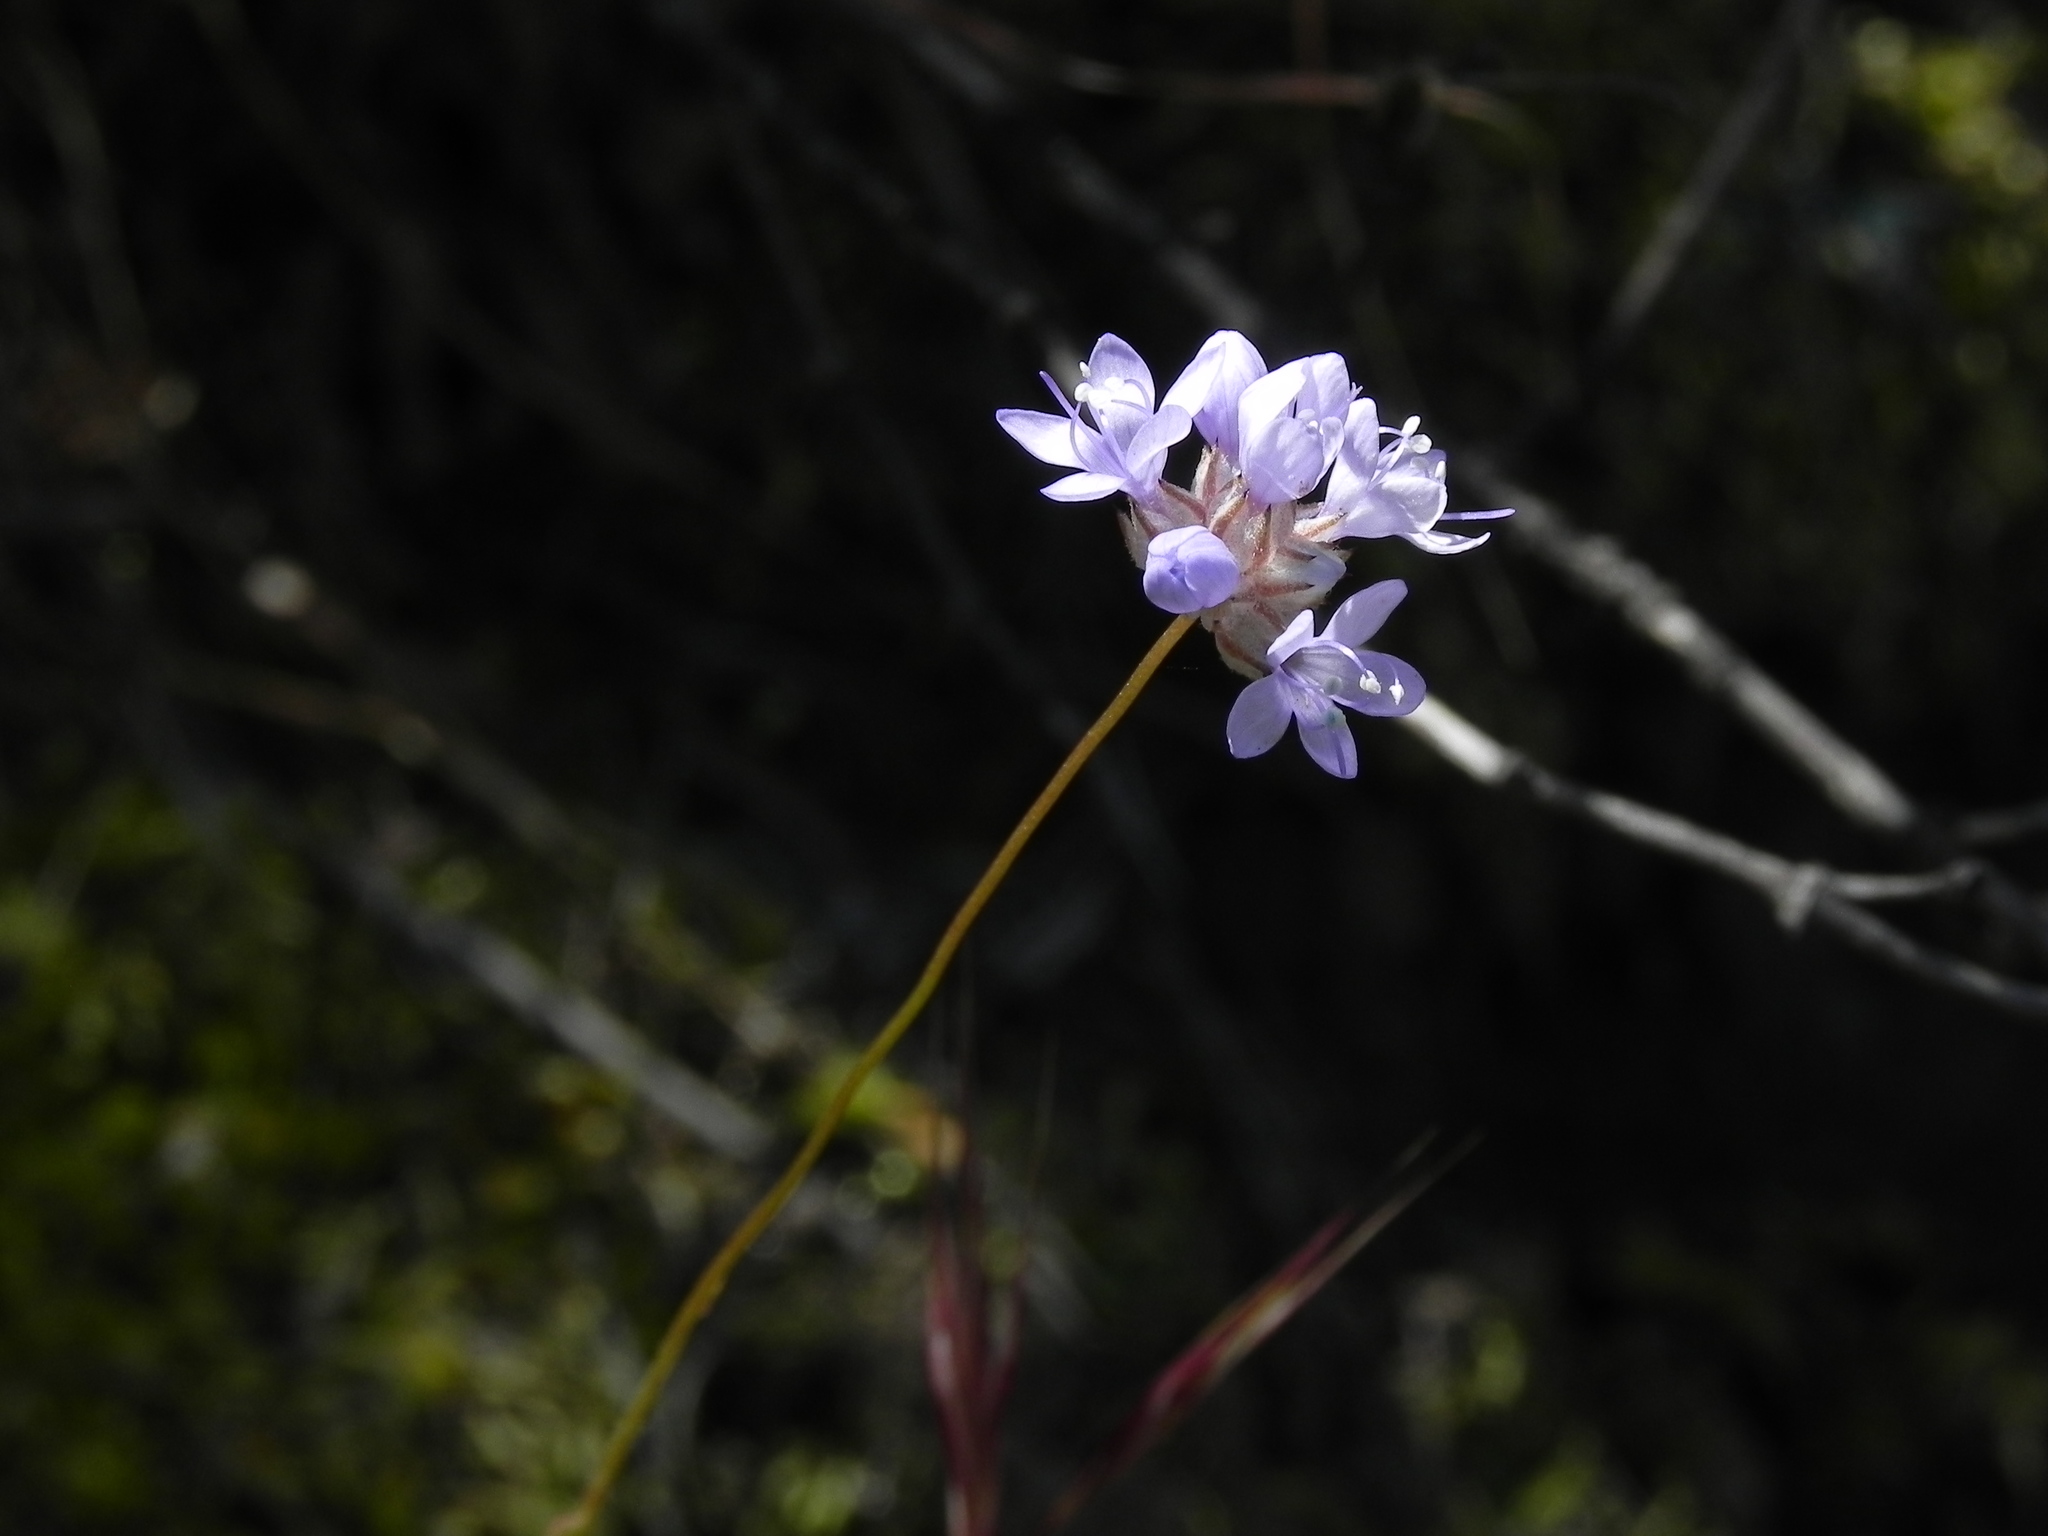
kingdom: Plantae
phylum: Tracheophyta
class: Magnoliopsida
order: Ericales
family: Polemoniaceae
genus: Gilia
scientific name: Gilia capitata
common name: Bluehead gilia
